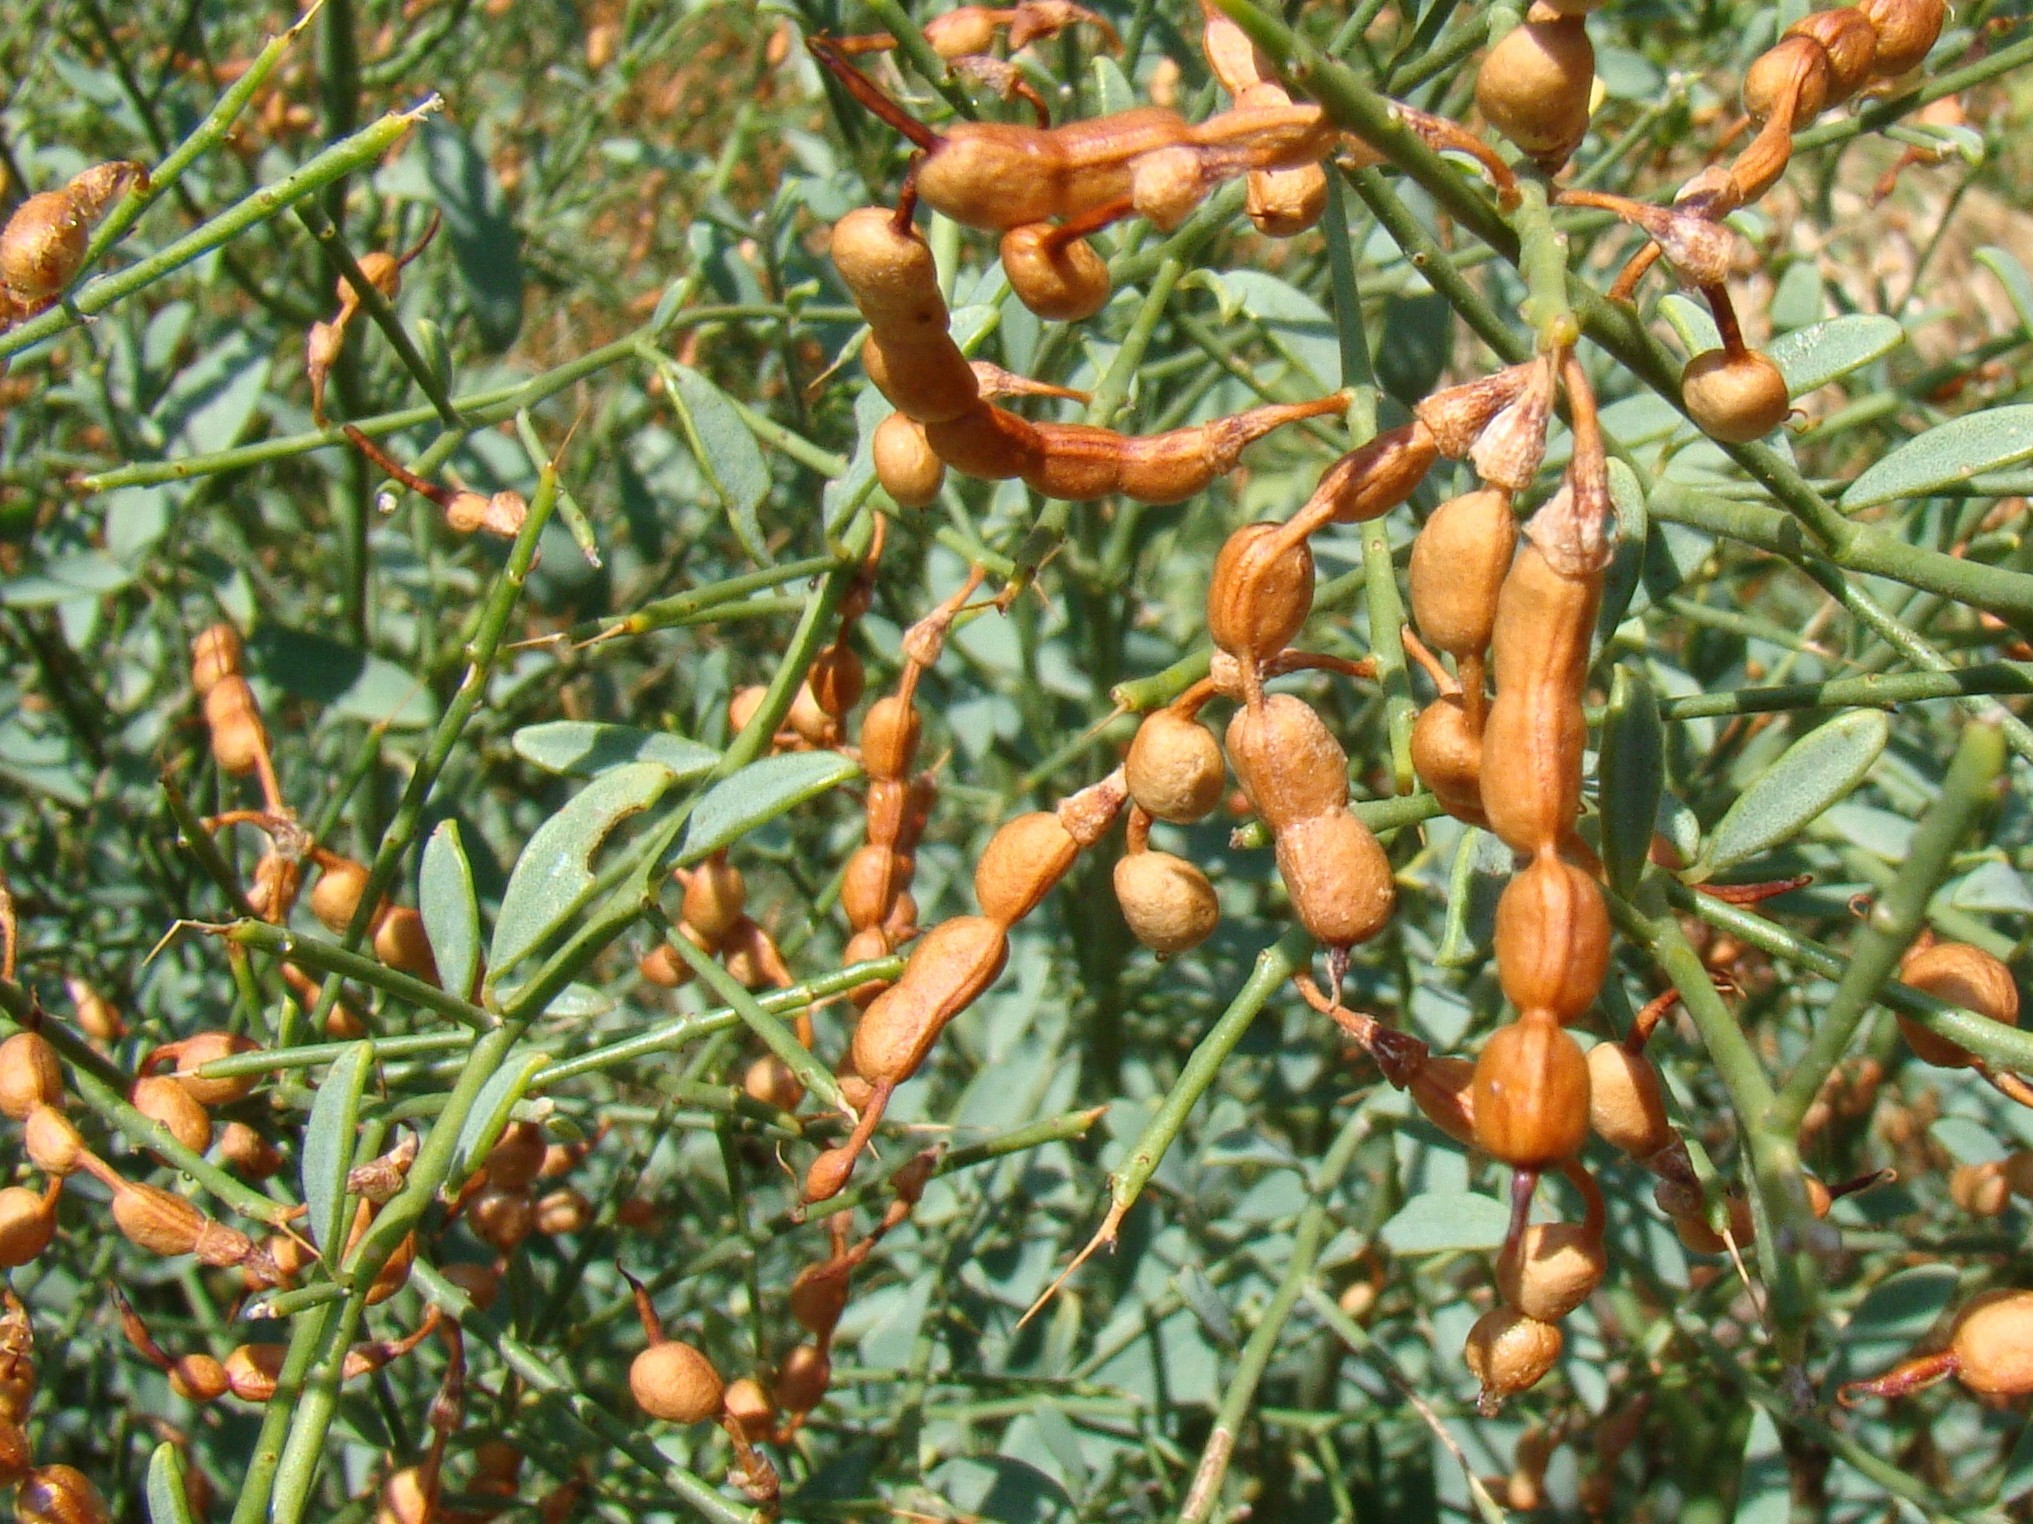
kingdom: Plantae
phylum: Tracheophyta
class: Magnoliopsida
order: Fabales
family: Fabaceae
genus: Alhagi
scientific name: Alhagi pseudalhagi
